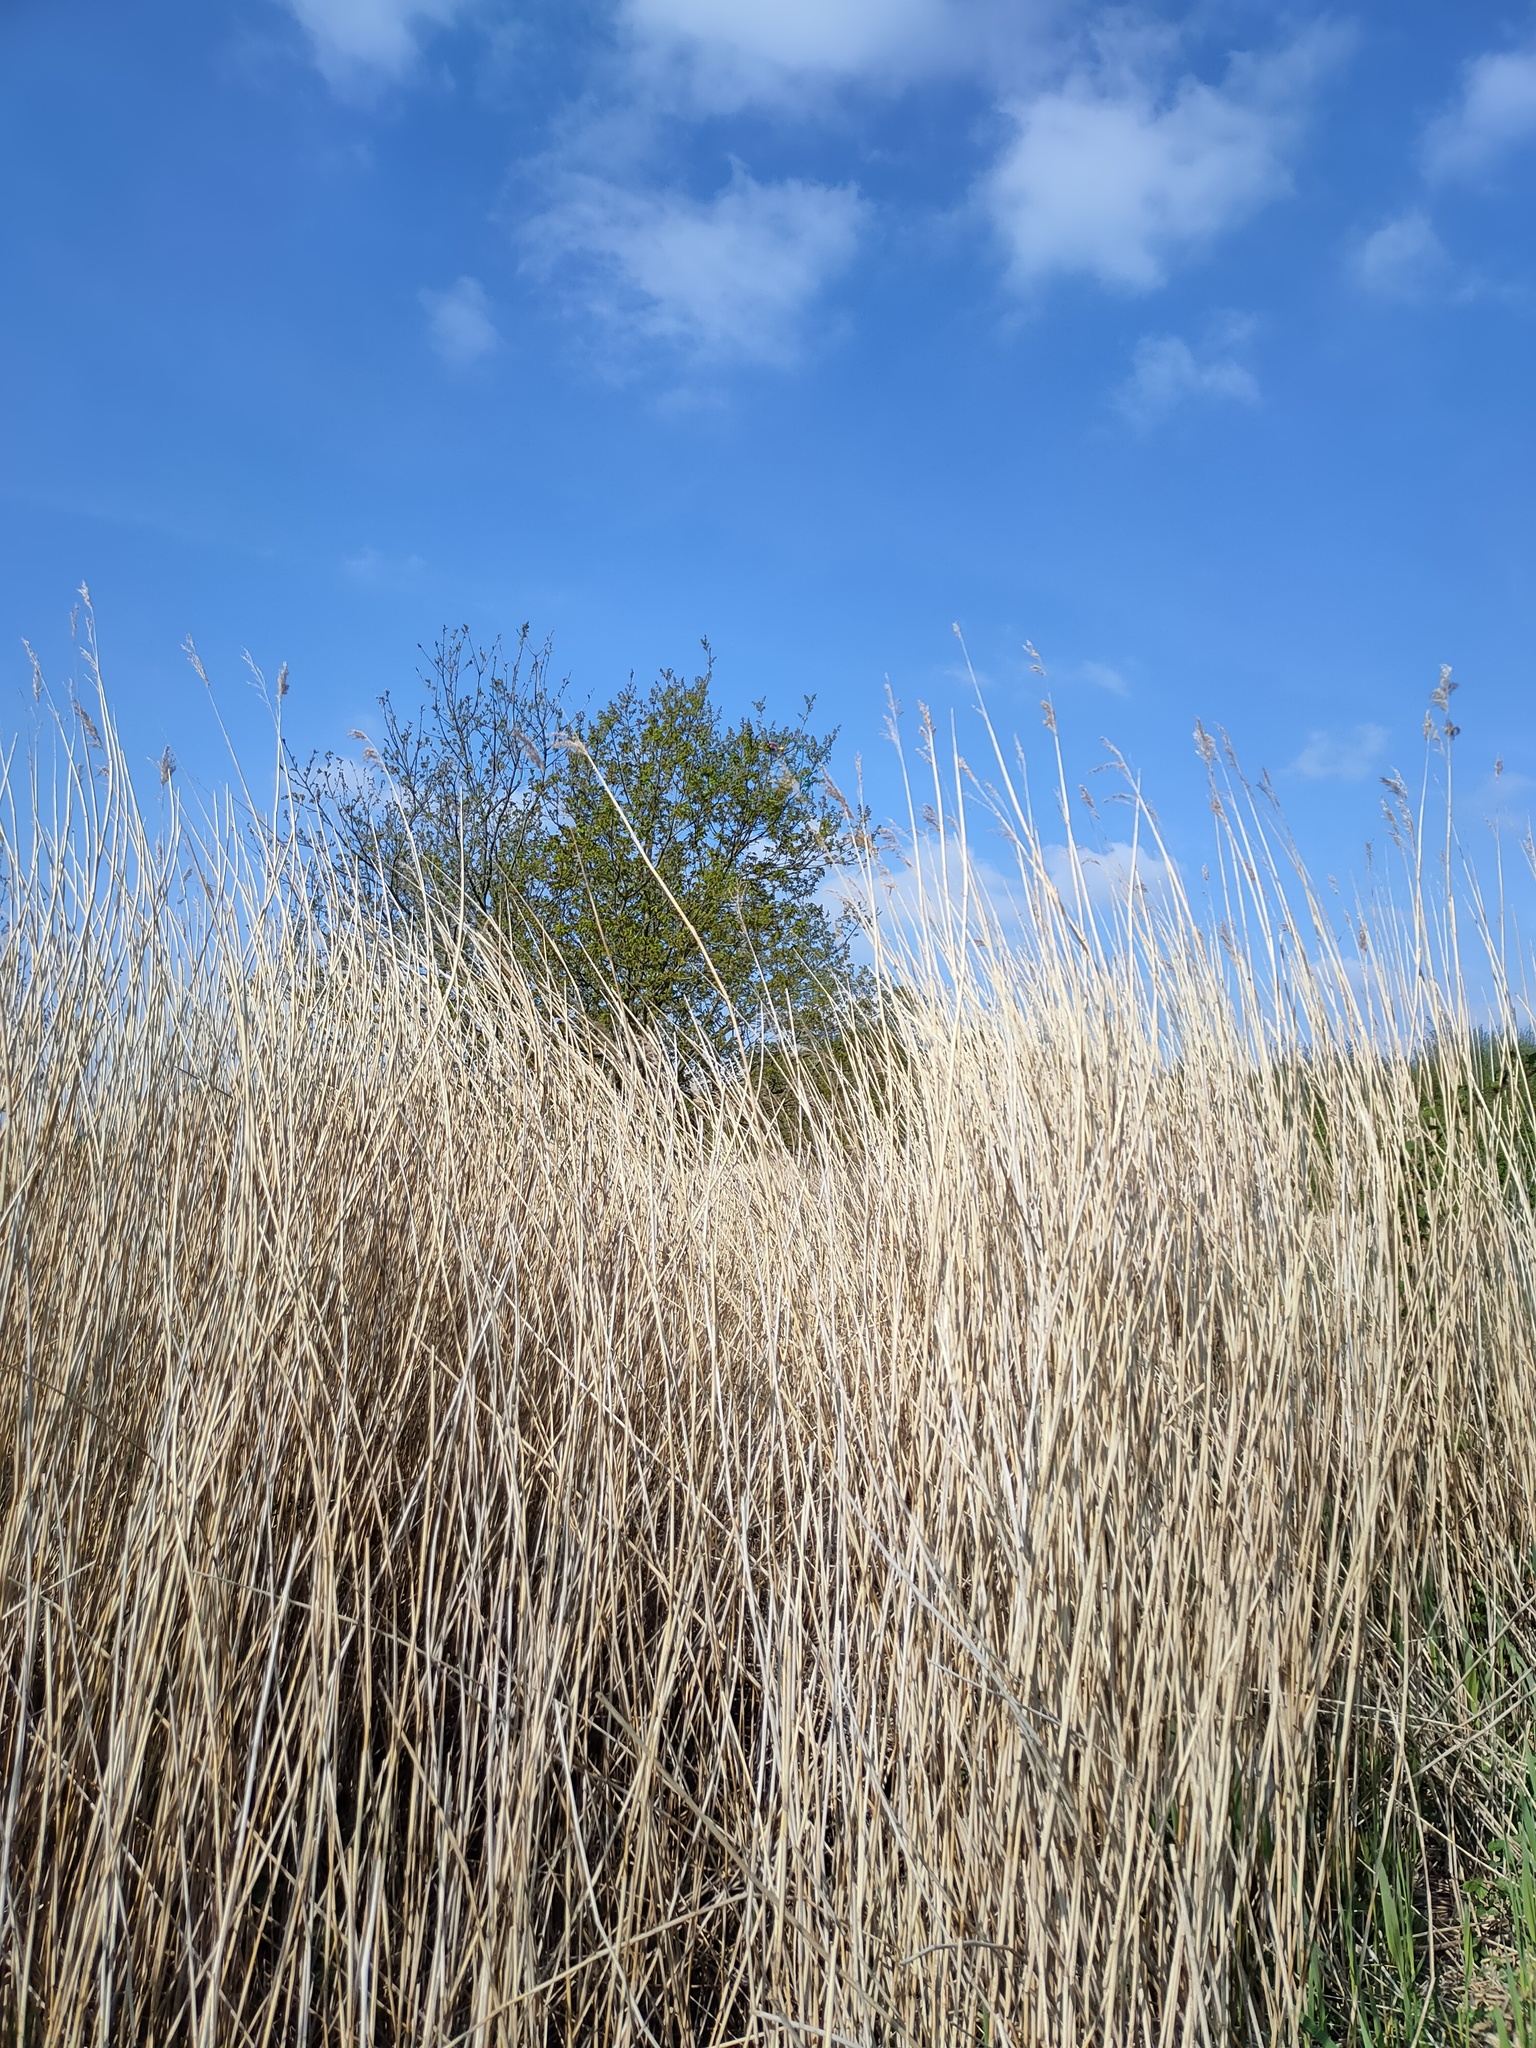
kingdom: Plantae
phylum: Tracheophyta
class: Liliopsida
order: Poales
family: Poaceae
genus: Phragmites
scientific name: Phragmites australis
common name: Common reed
